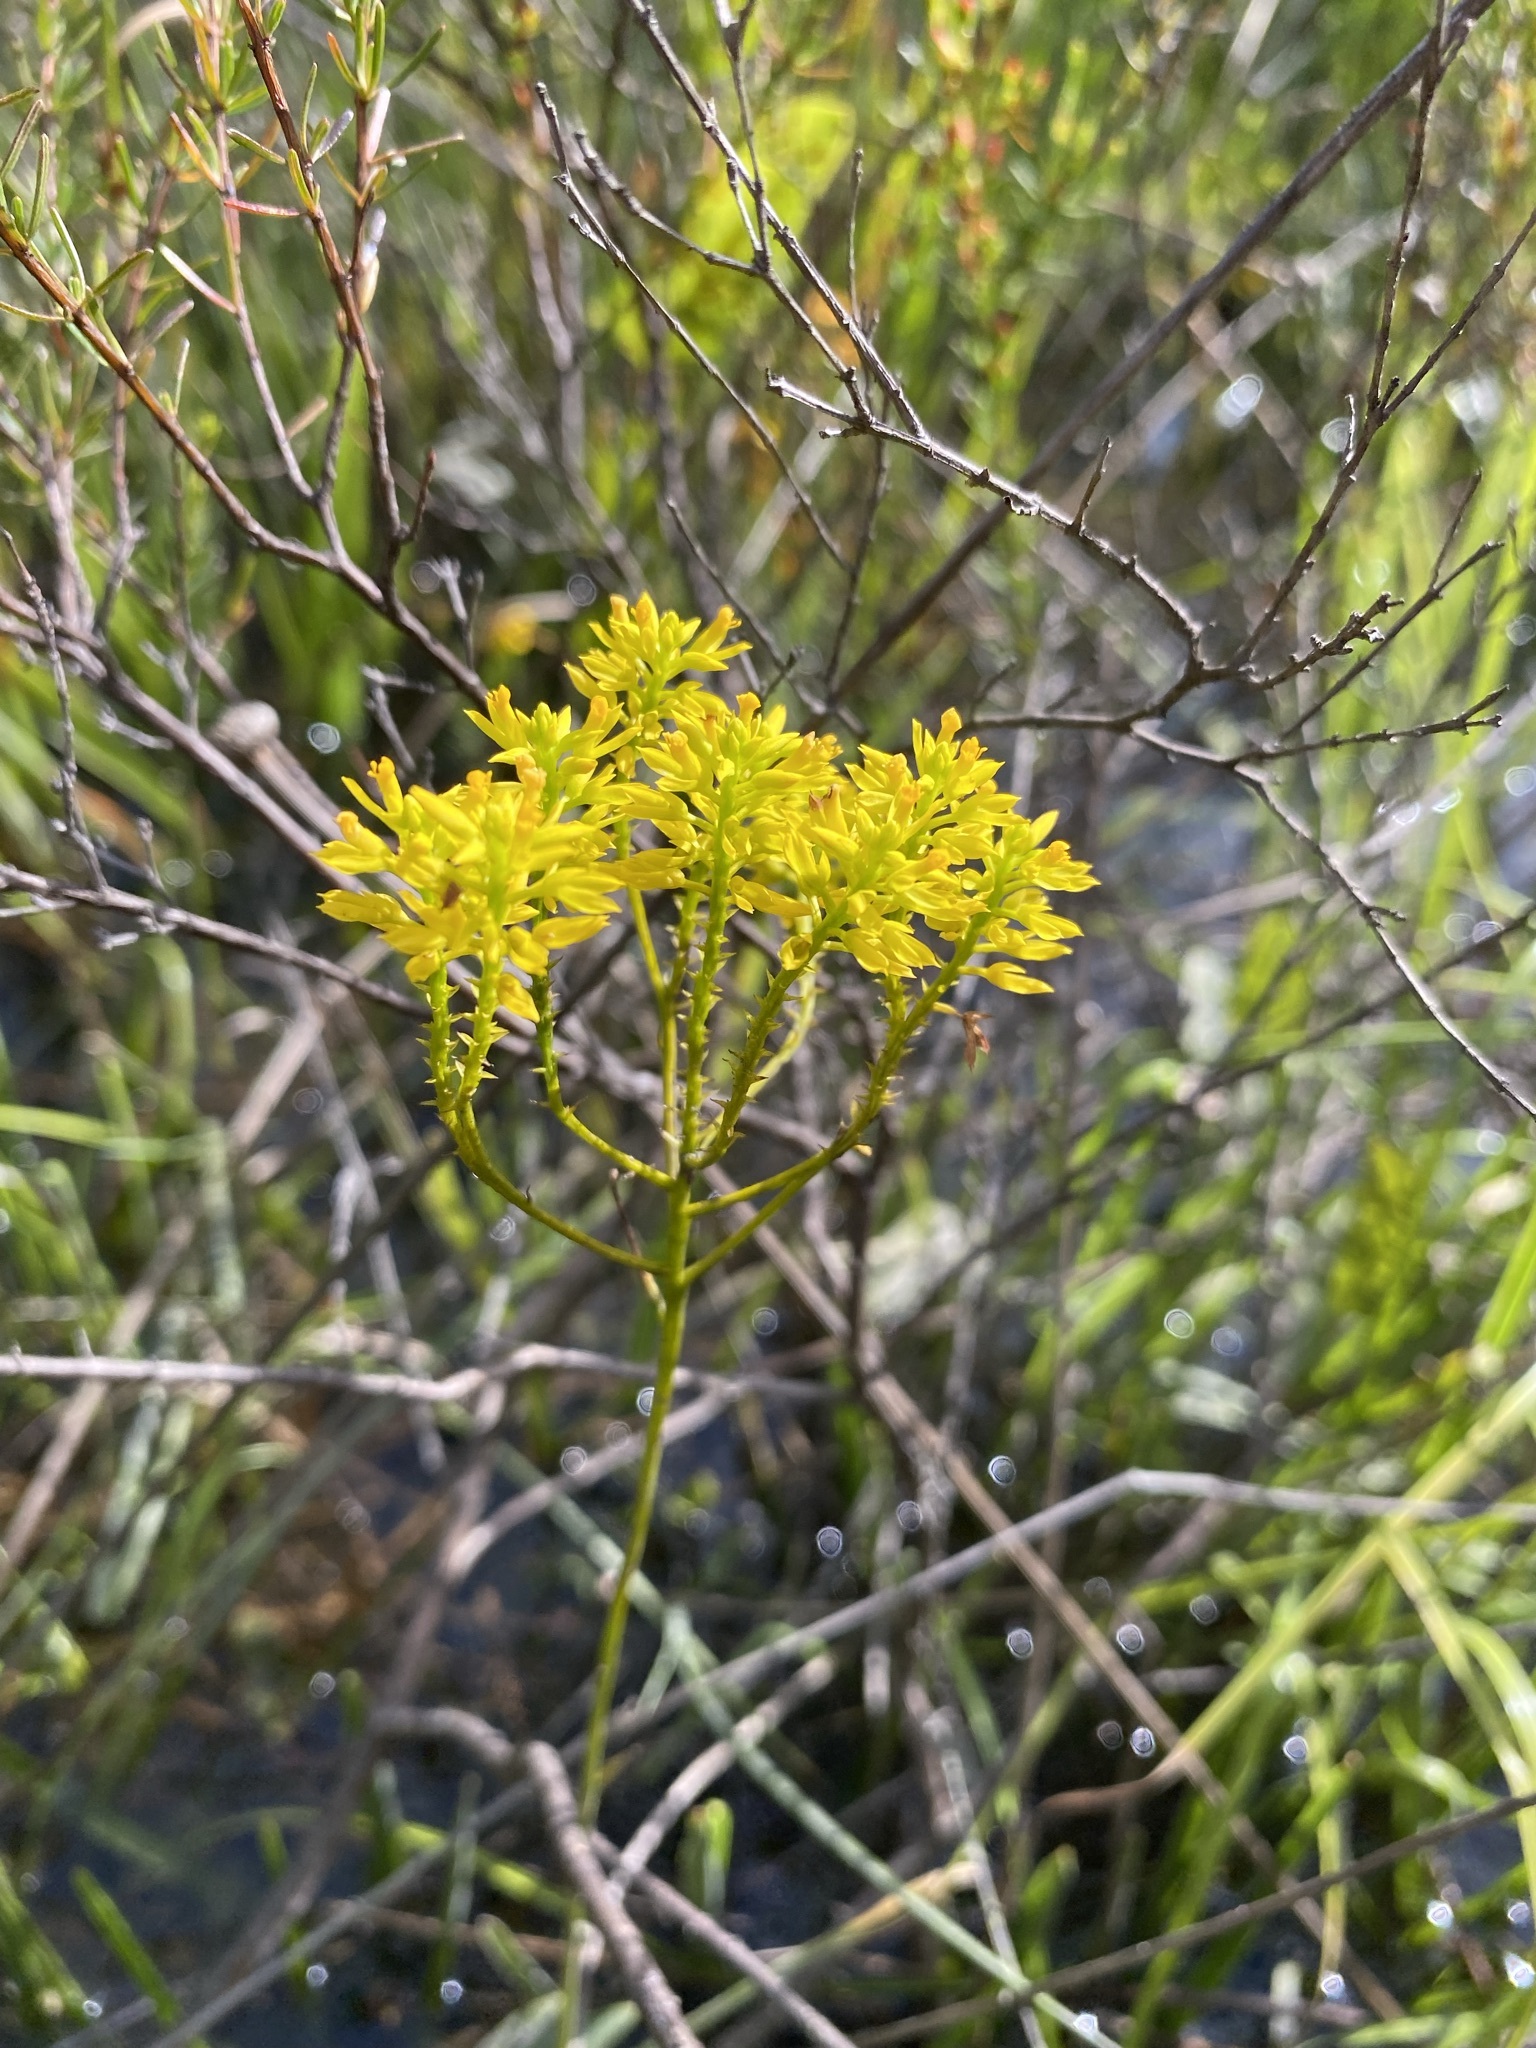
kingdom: Plantae
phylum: Tracheophyta
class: Magnoliopsida
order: Fabales
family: Polygalaceae
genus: Polygala
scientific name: Polygala cymosa
